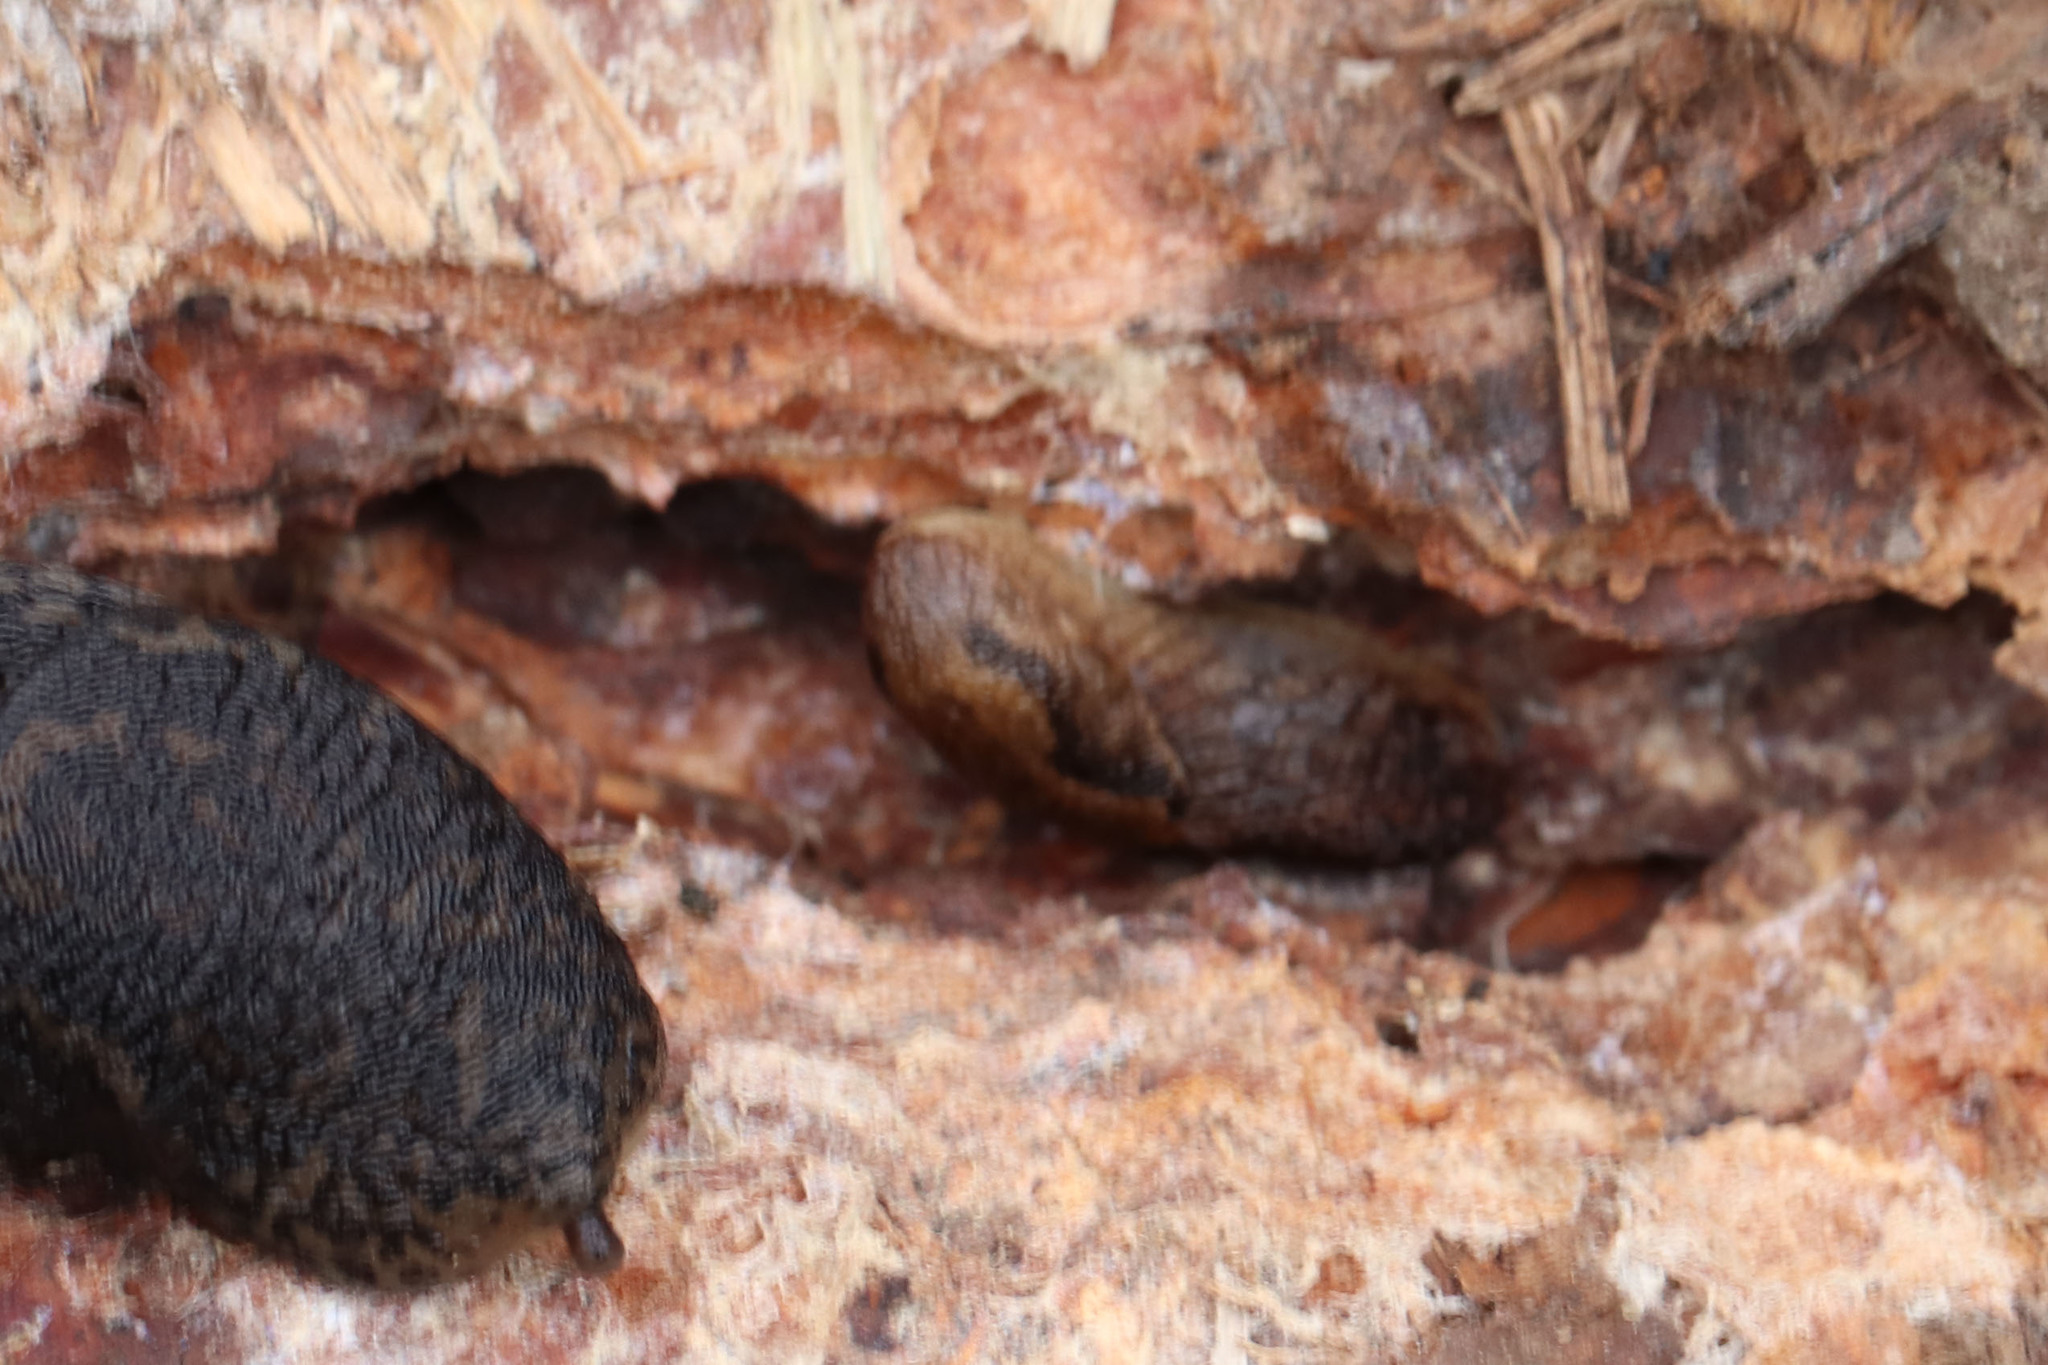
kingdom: Animalia
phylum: Mollusca
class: Gastropoda
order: Stylommatophora
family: Limacidae
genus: Limax
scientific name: Limax maximus
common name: Great grey slug
